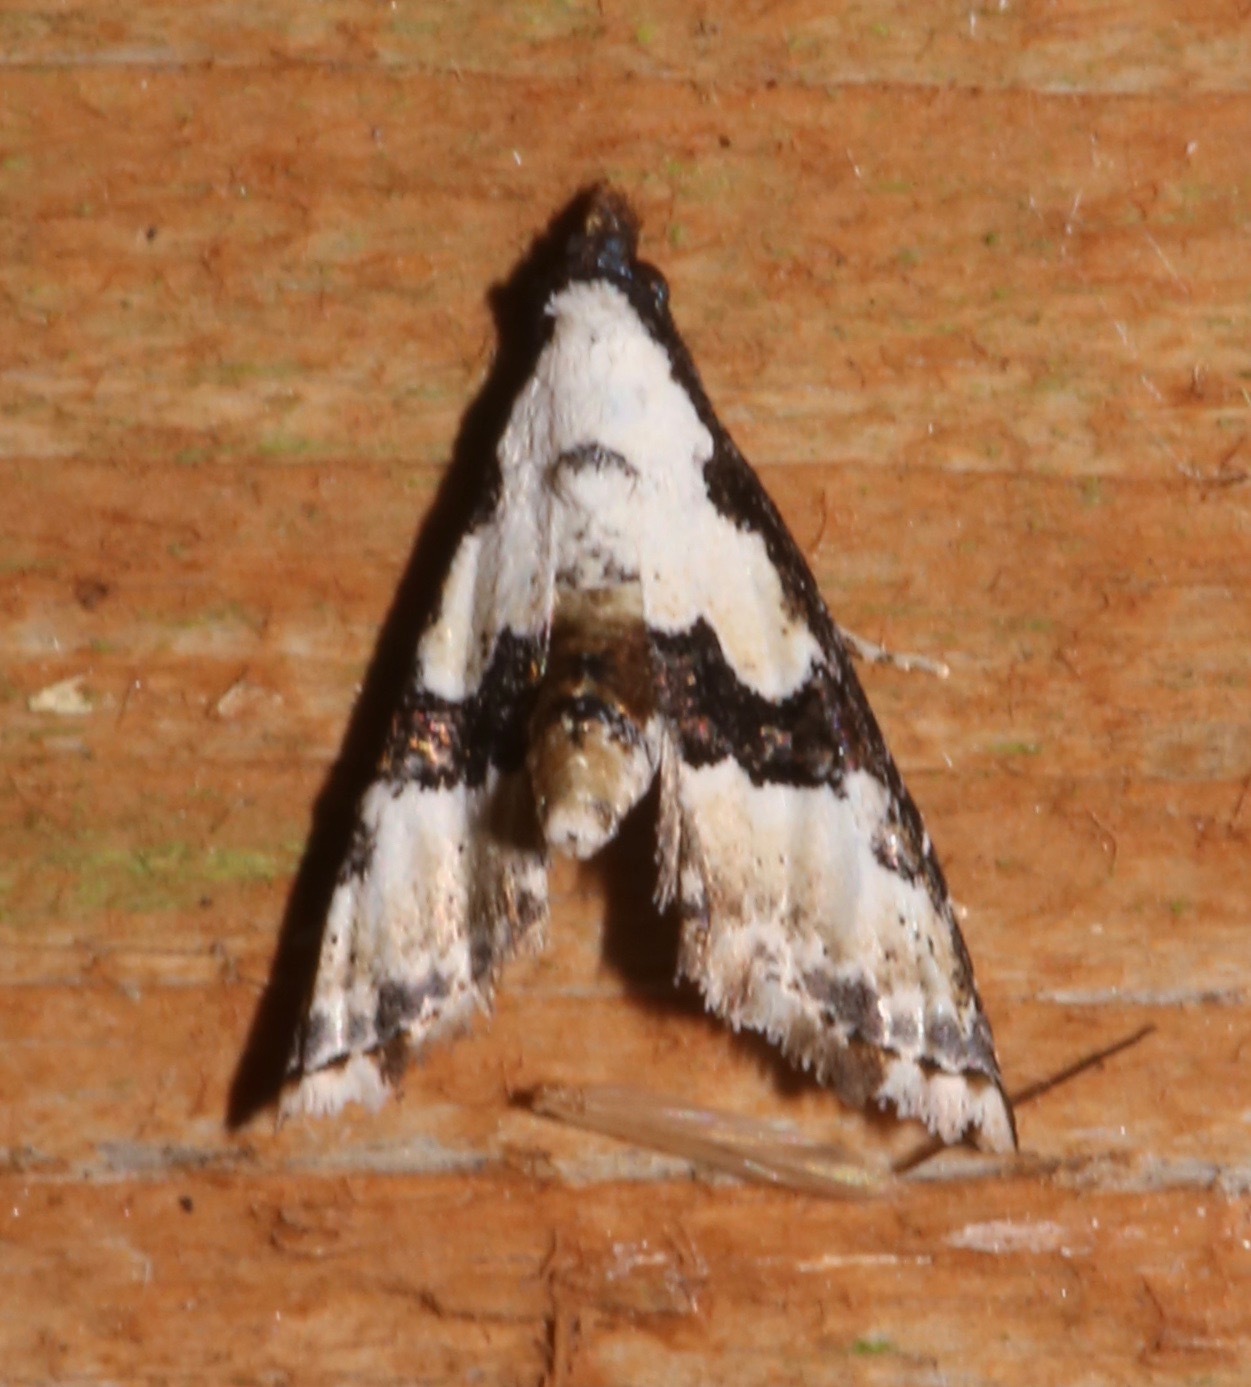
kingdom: Animalia
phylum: Arthropoda
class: Insecta
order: Lepidoptera
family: Noctuidae
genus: Nigetia
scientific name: Nigetia formosalis
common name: Thin-winged owlet
